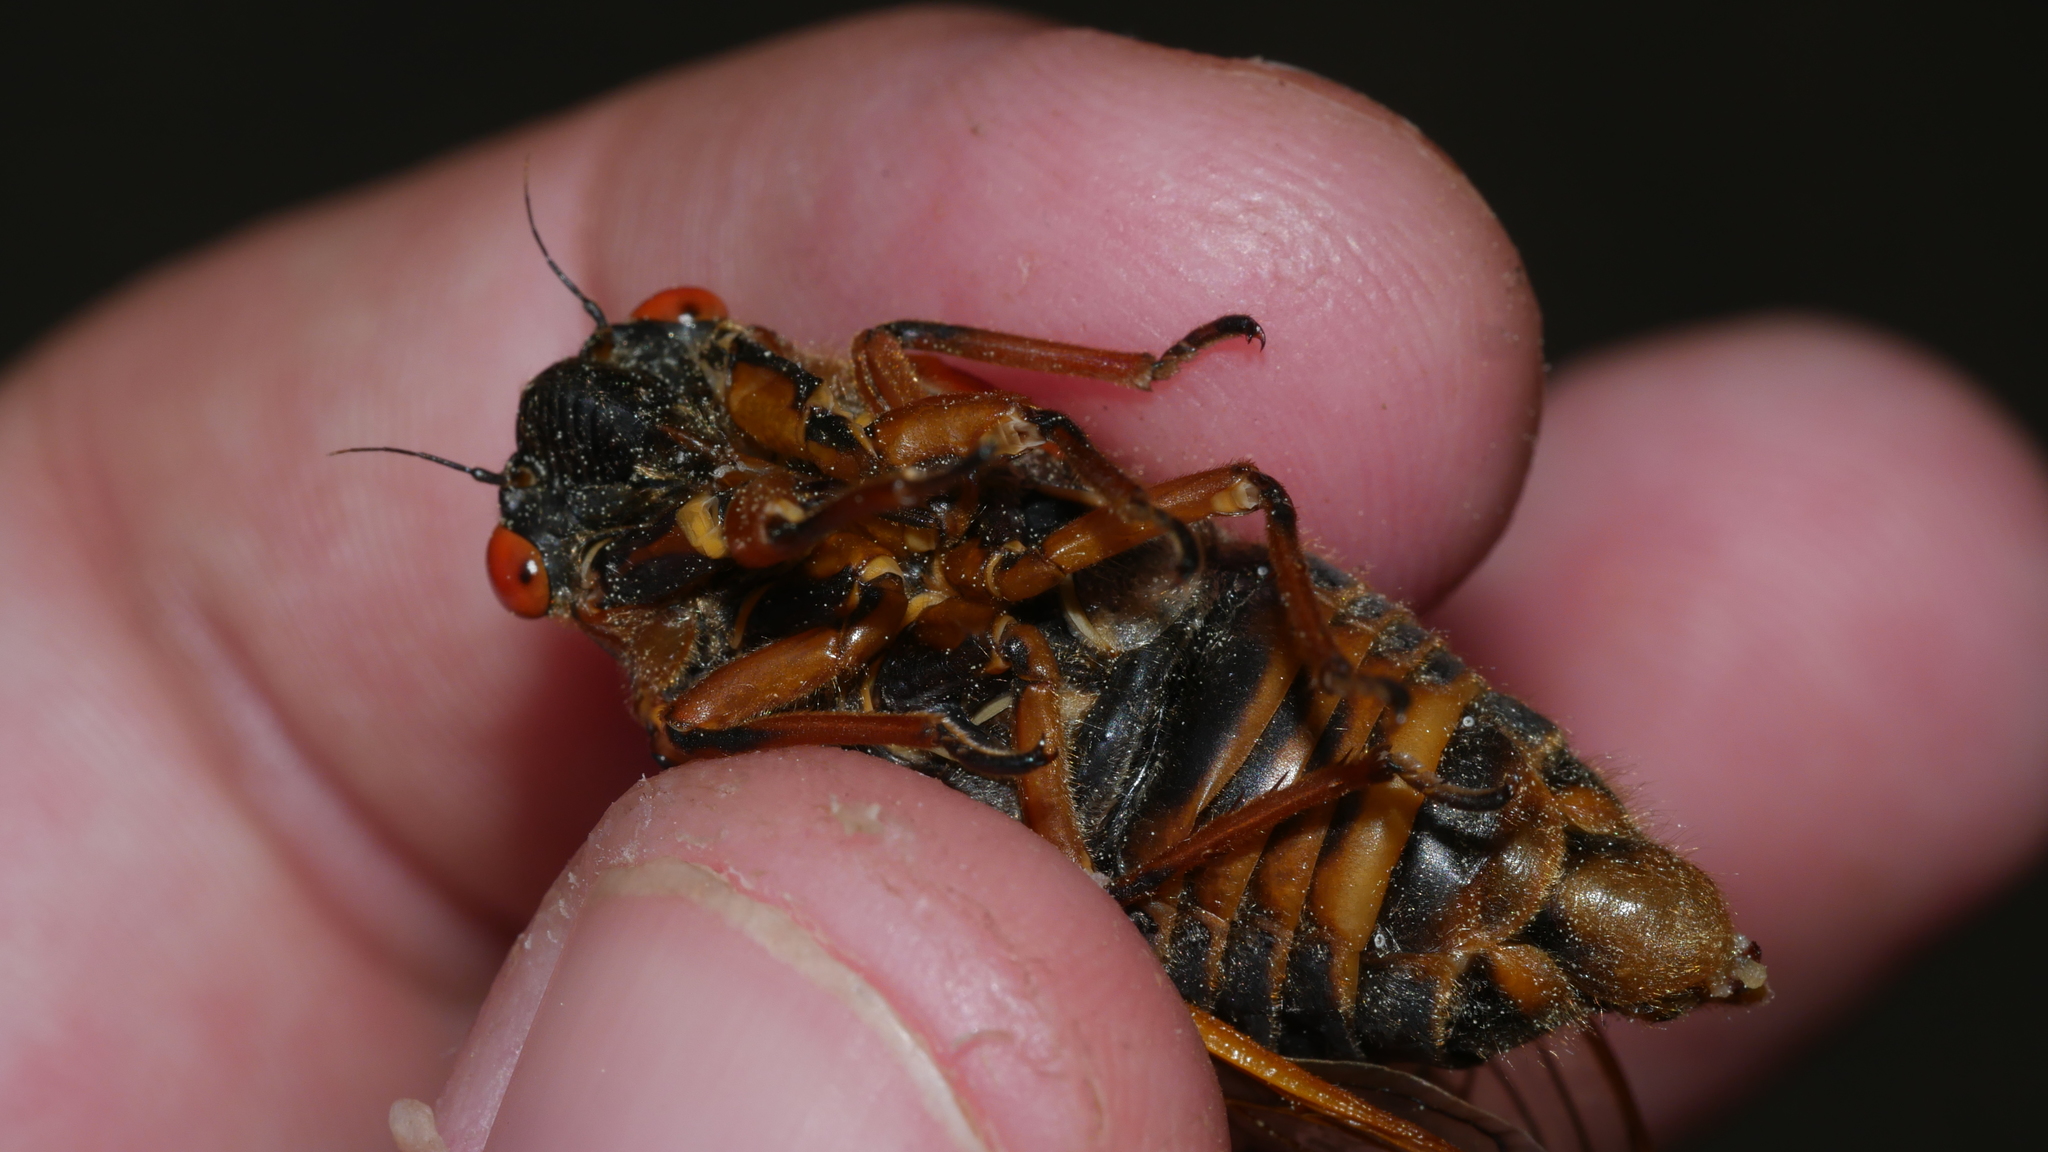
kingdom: Animalia
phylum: Arthropoda
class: Insecta
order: Hemiptera
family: Cicadidae
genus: Magicicada
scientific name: Magicicada septendecim
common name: Periodical cicada
